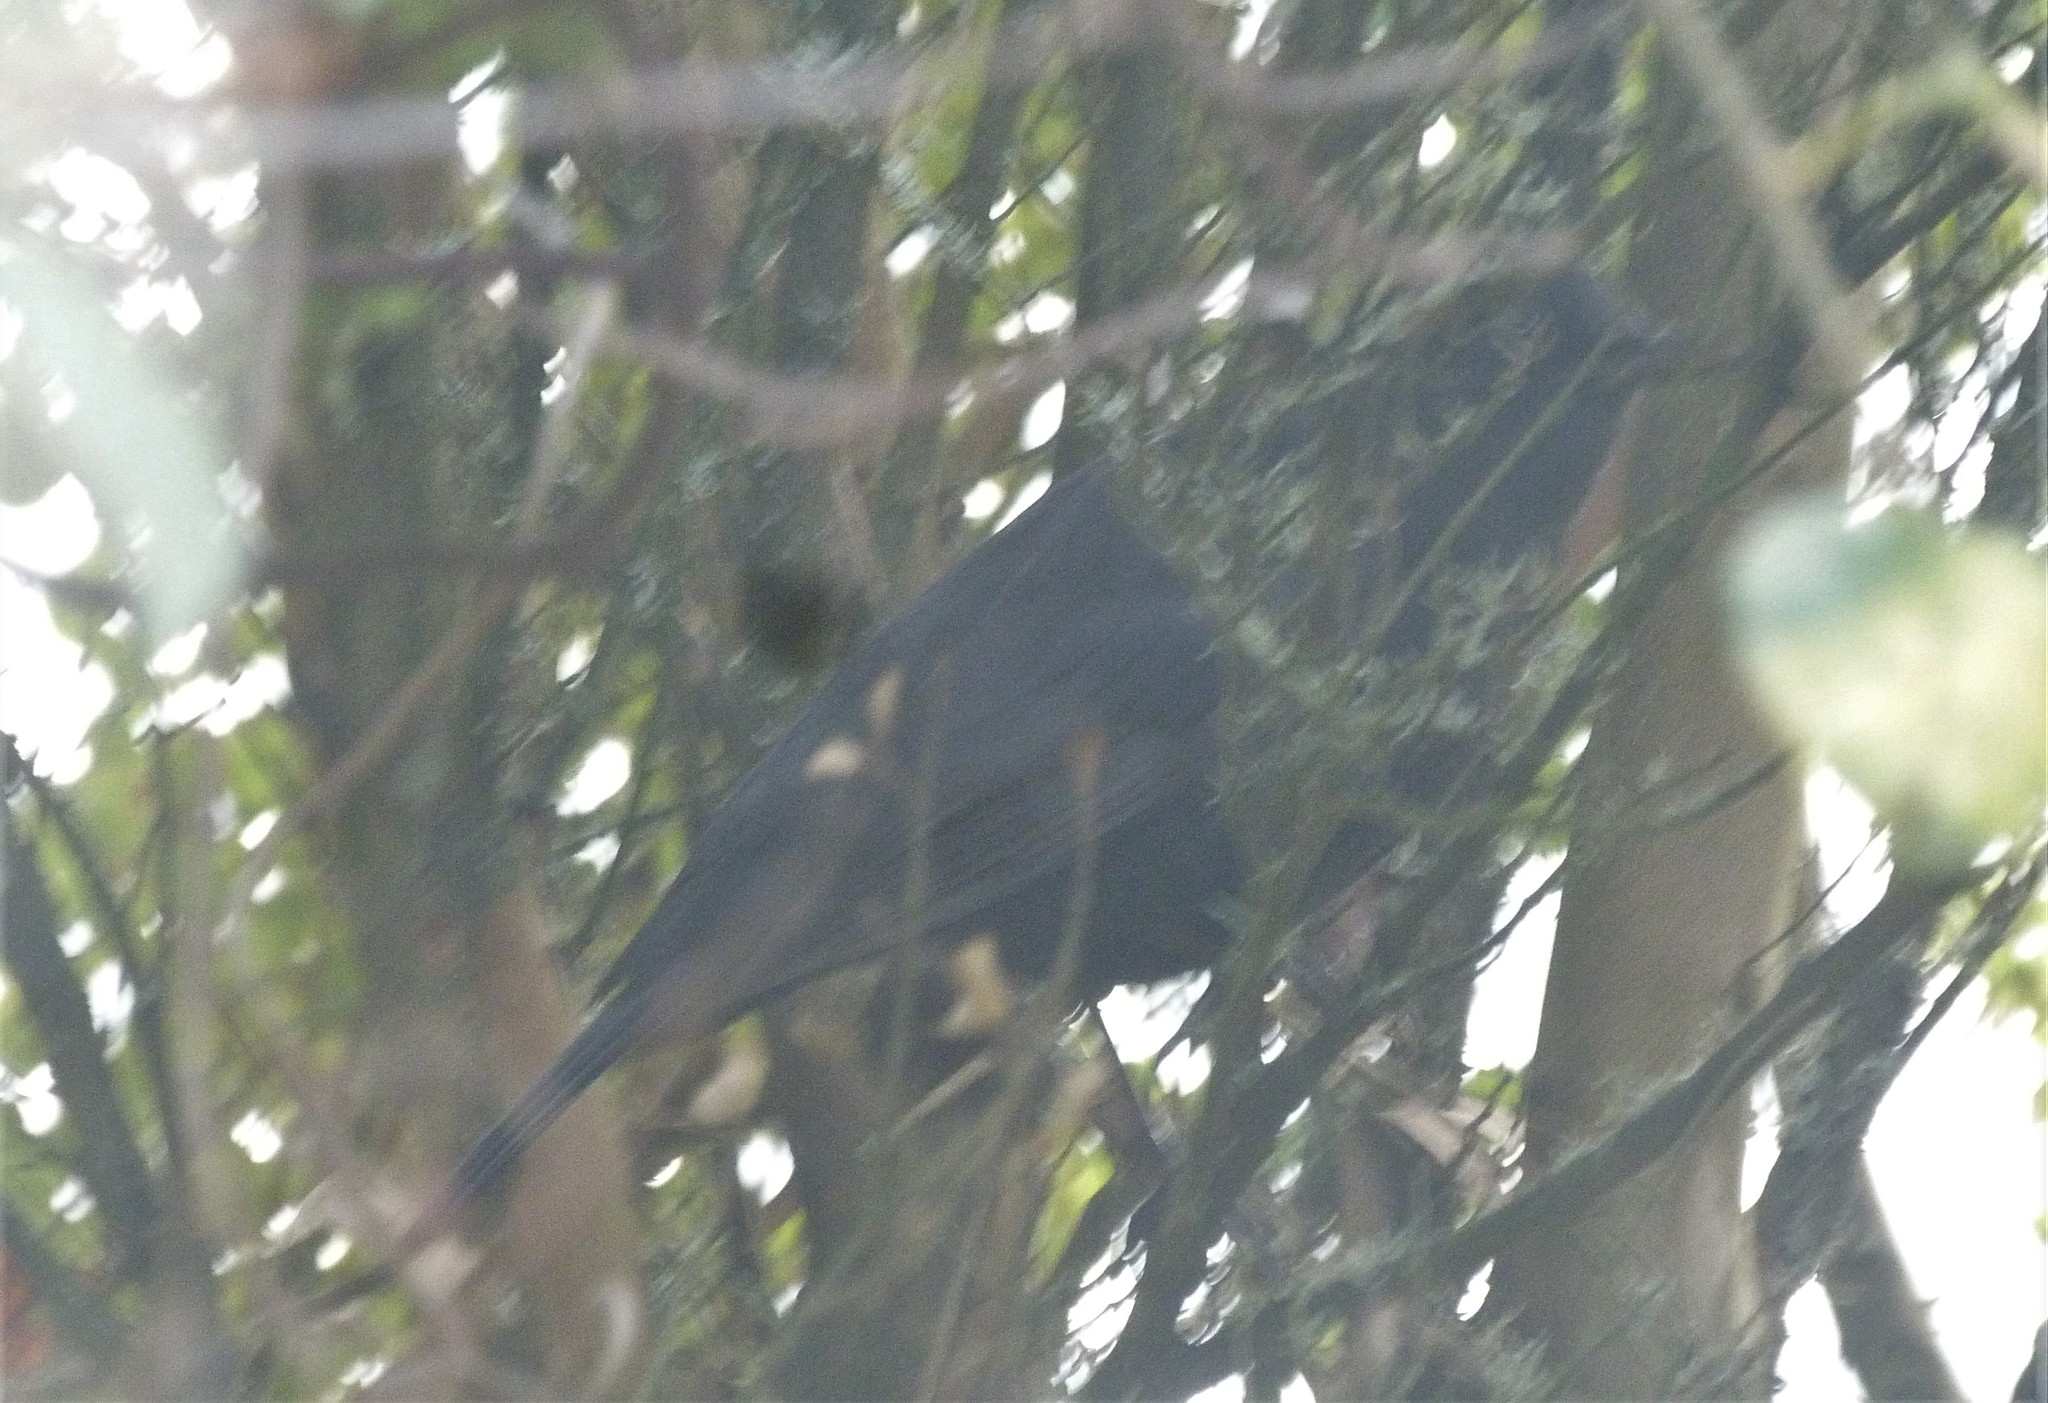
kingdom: Animalia
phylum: Chordata
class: Aves
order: Passeriformes
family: Turdidae
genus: Turdus
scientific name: Turdus merula
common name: Common blackbird
